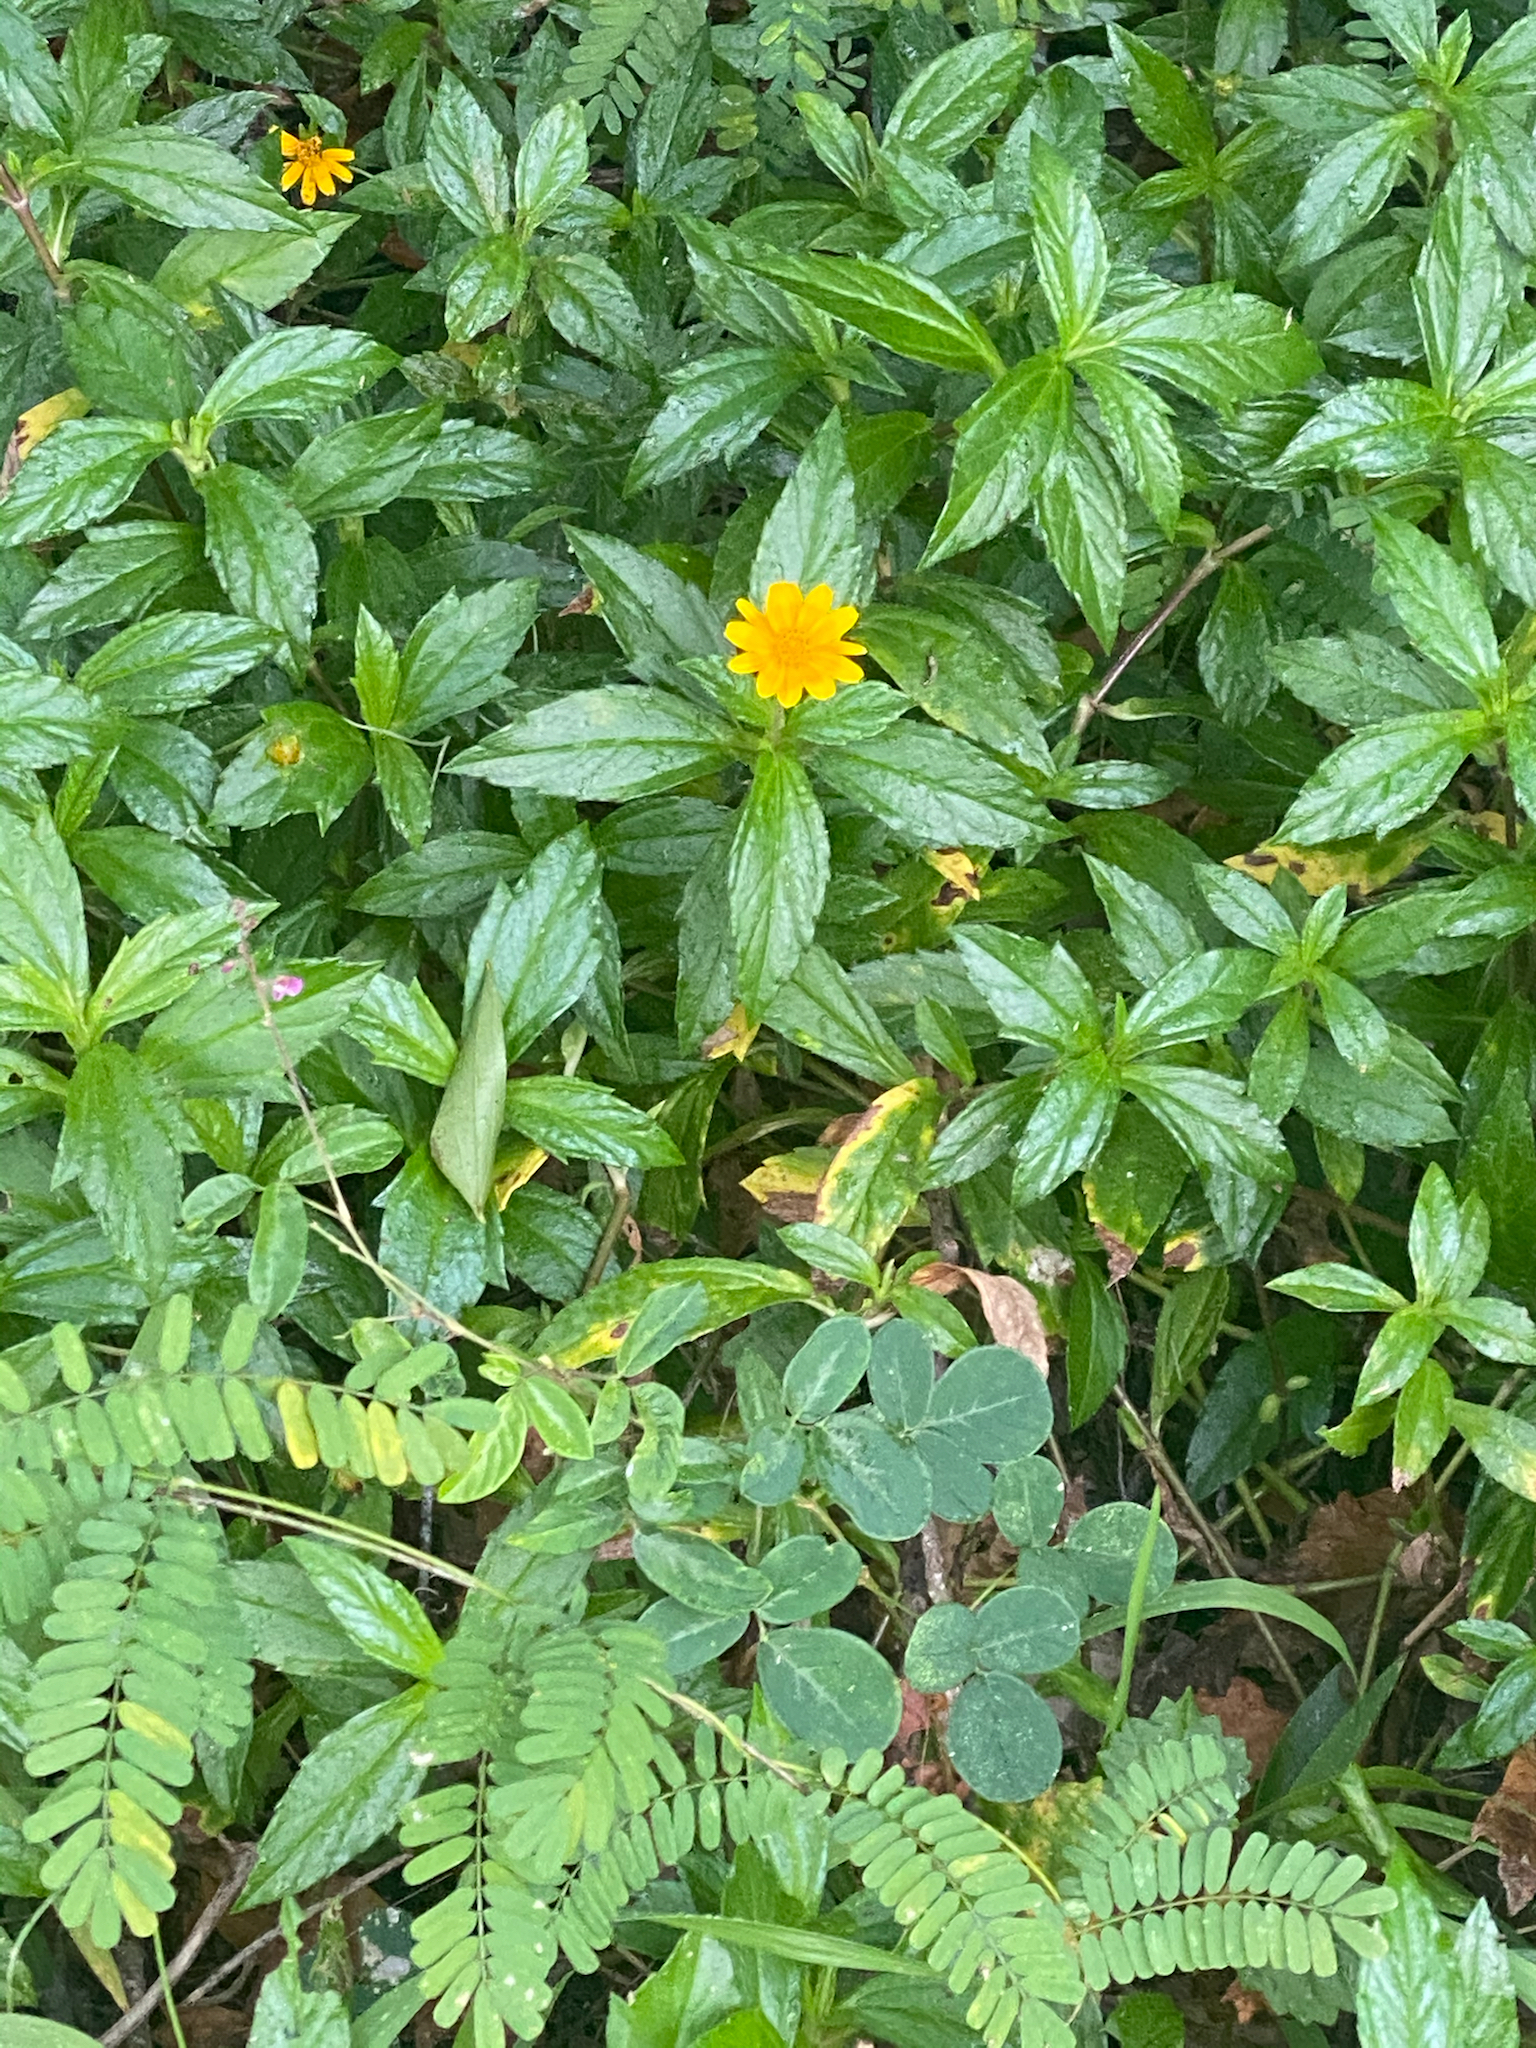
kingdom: Plantae
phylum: Tracheophyta
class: Magnoliopsida
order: Asterales
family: Asteraceae
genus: Sphagneticola
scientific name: Sphagneticola trilobata
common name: Bay biscayne creeping-oxeye
